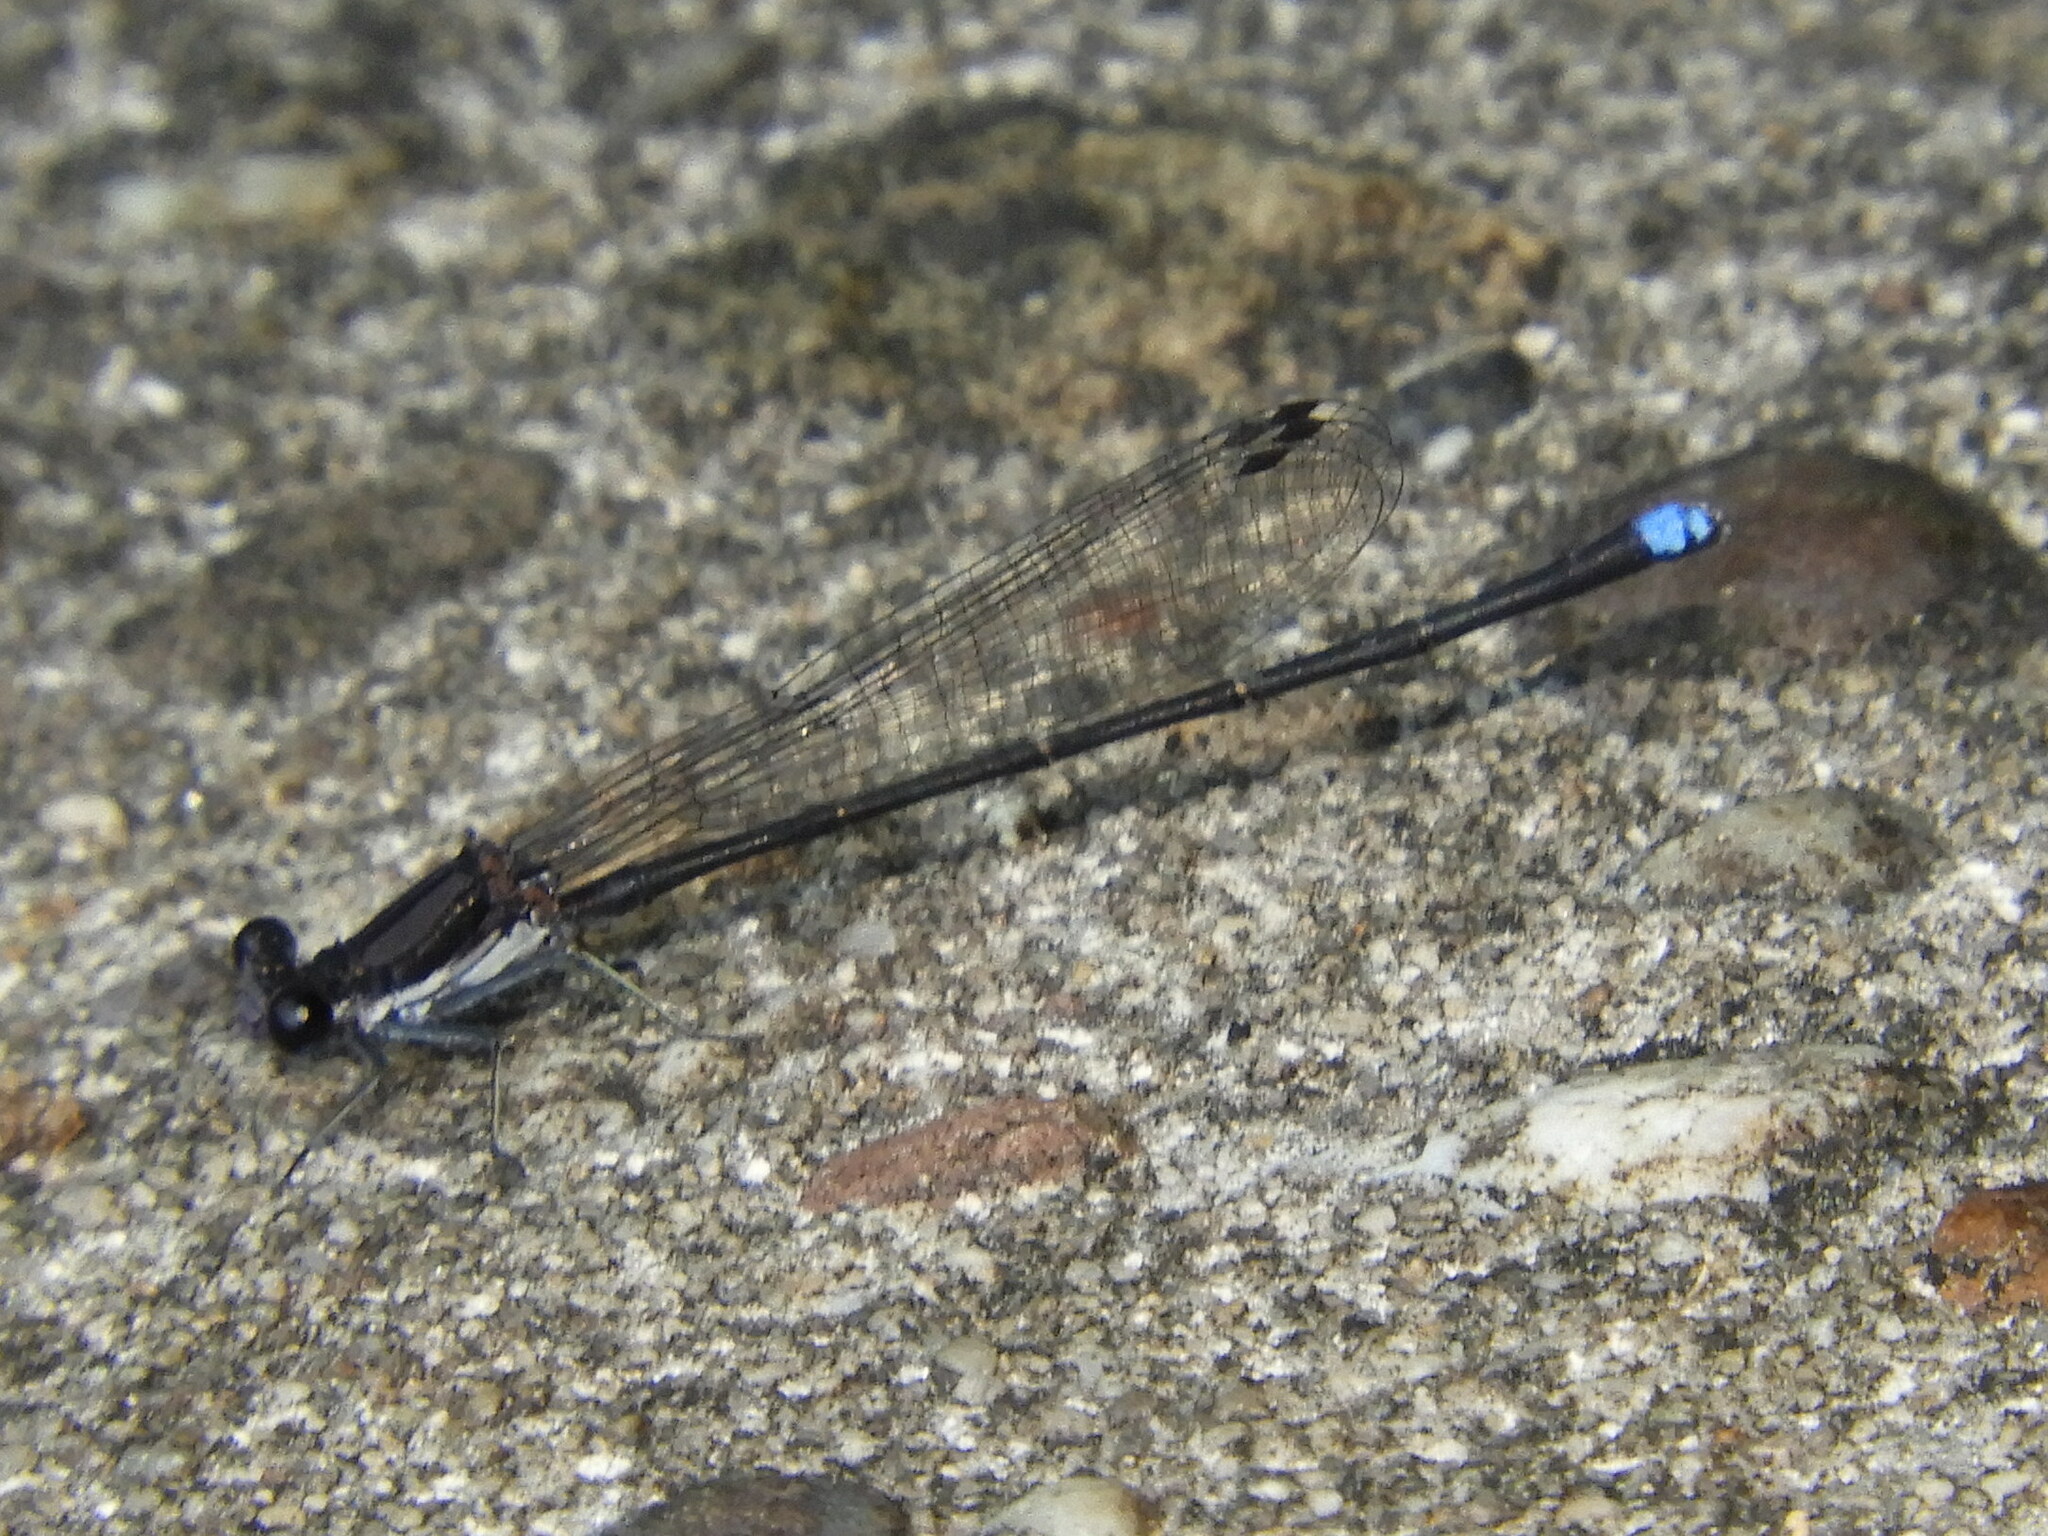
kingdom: Animalia
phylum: Arthropoda
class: Insecta
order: Odonata
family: Coenagrionidae
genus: Argia
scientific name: Argia tibialis
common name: Blue-tipped dancer
